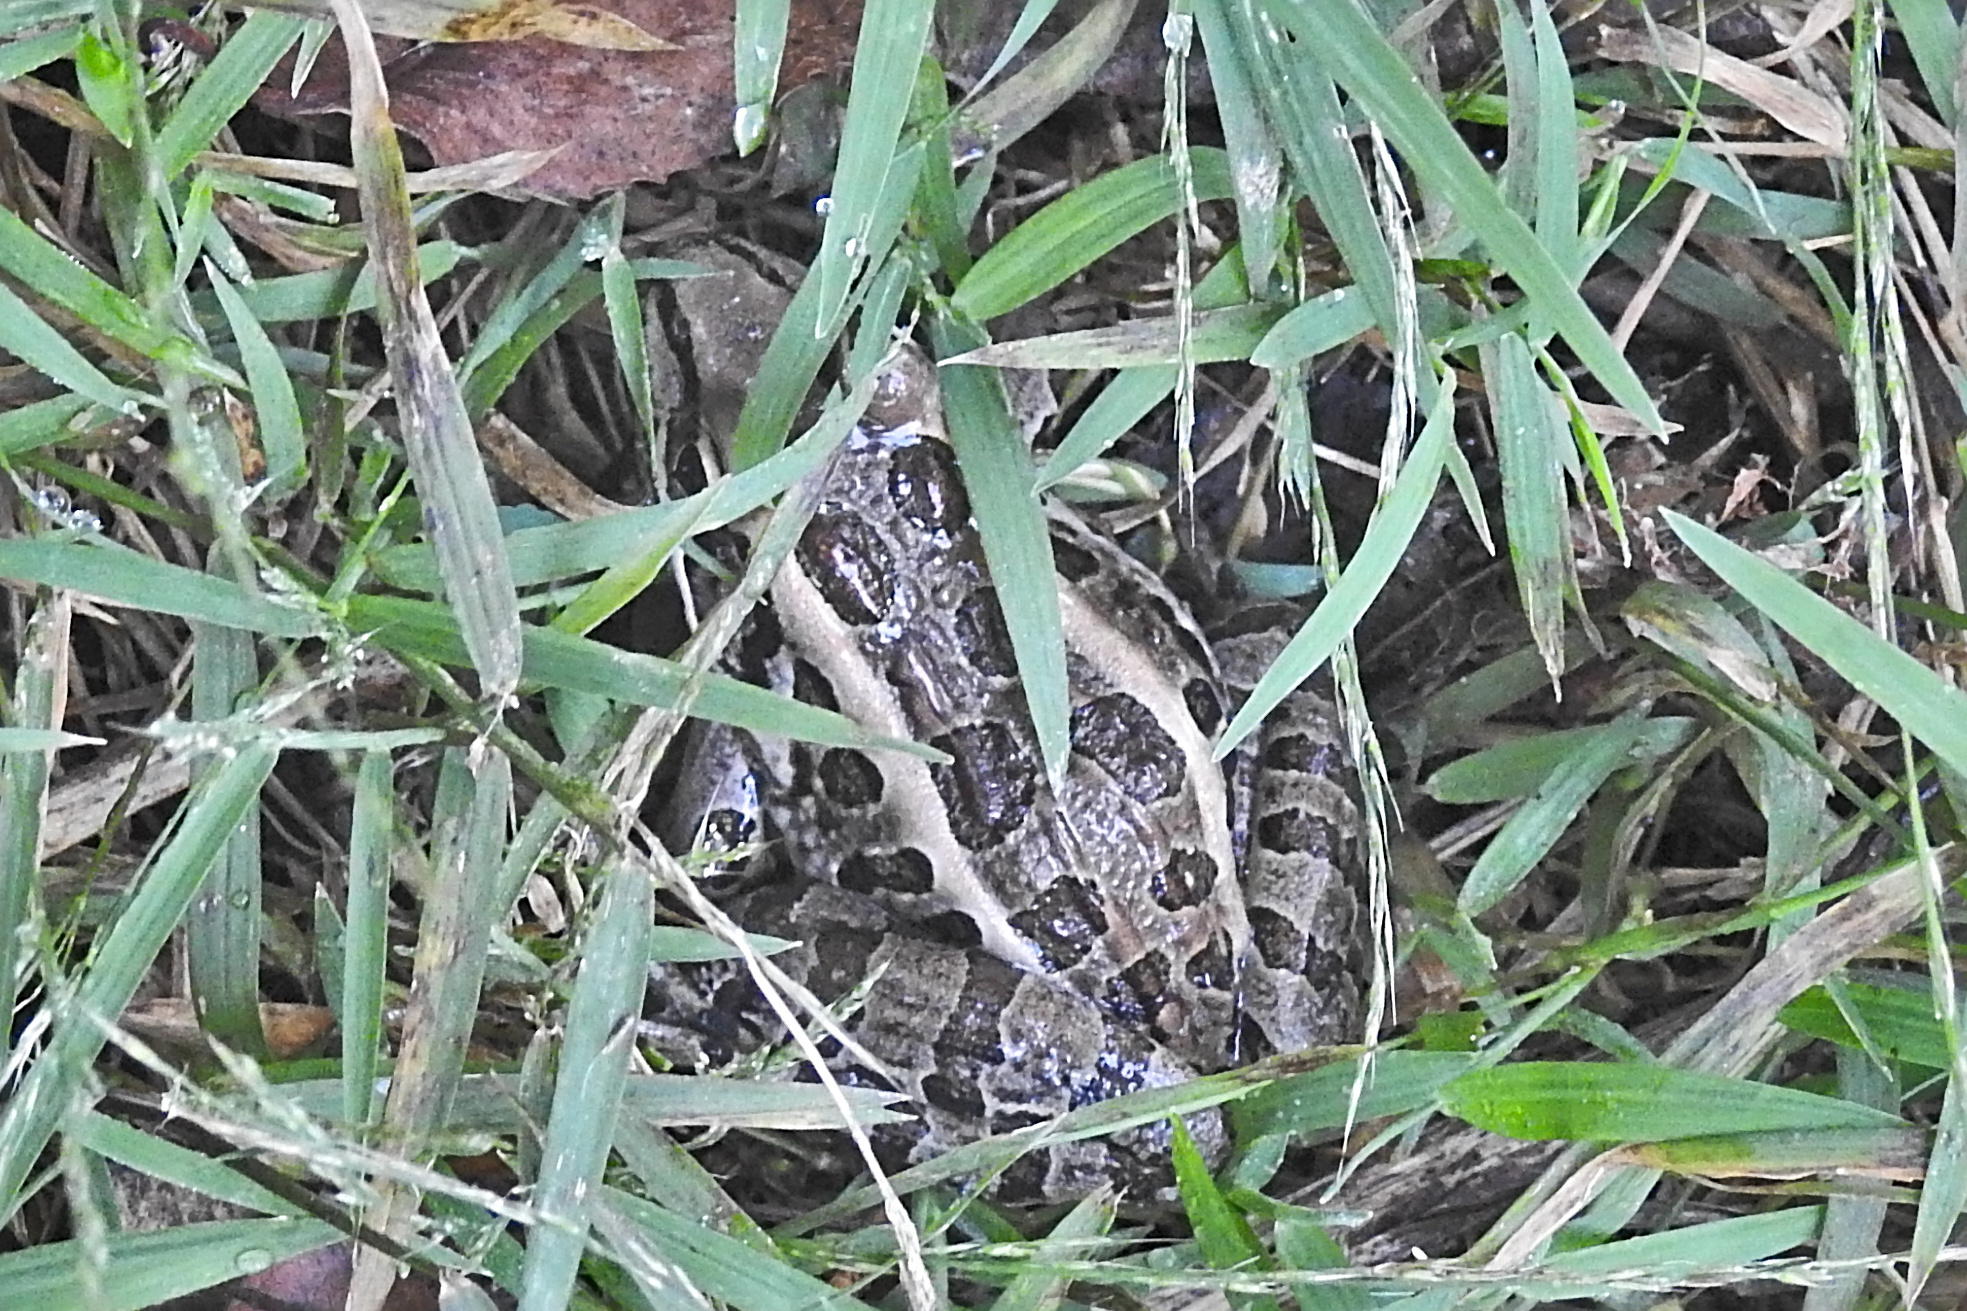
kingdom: Animalia
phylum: Chordata
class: Amphibia
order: Anura
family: Ranidae
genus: Lithobates
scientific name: Lithobates palustris
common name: Pickerel frog
